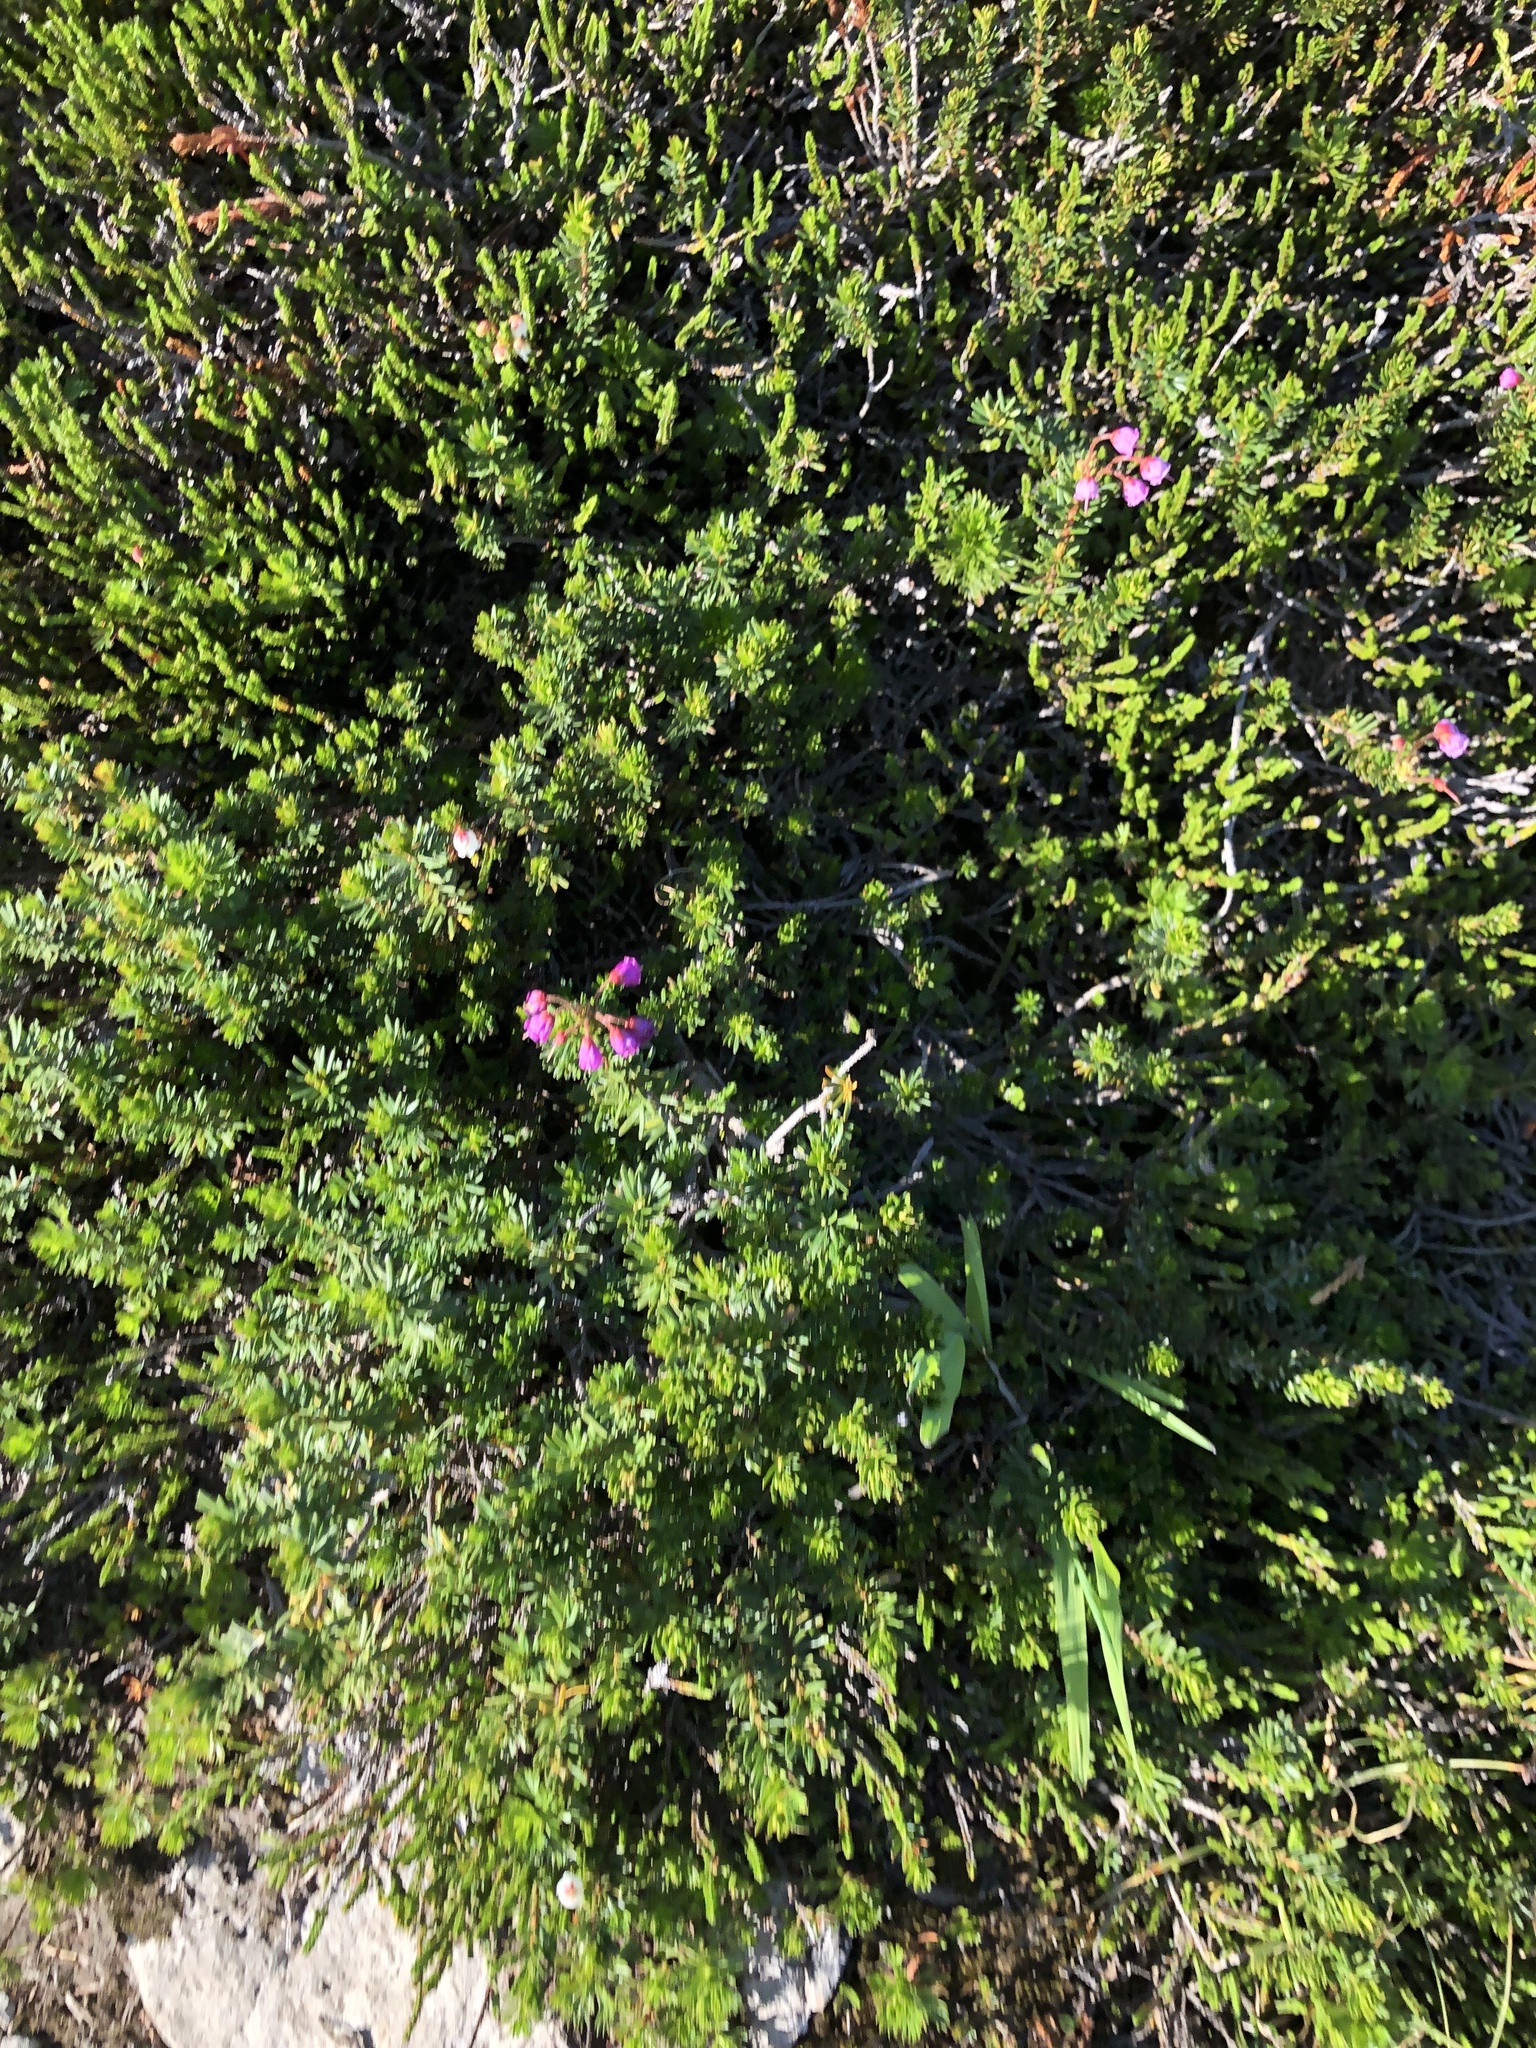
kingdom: Plantae
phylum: Tracheophyta
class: Magnoliopsida
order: Ericales
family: Ericaceae
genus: Phyllodoce
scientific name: Phyllodoce empetriformis
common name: Pink mountain heather
